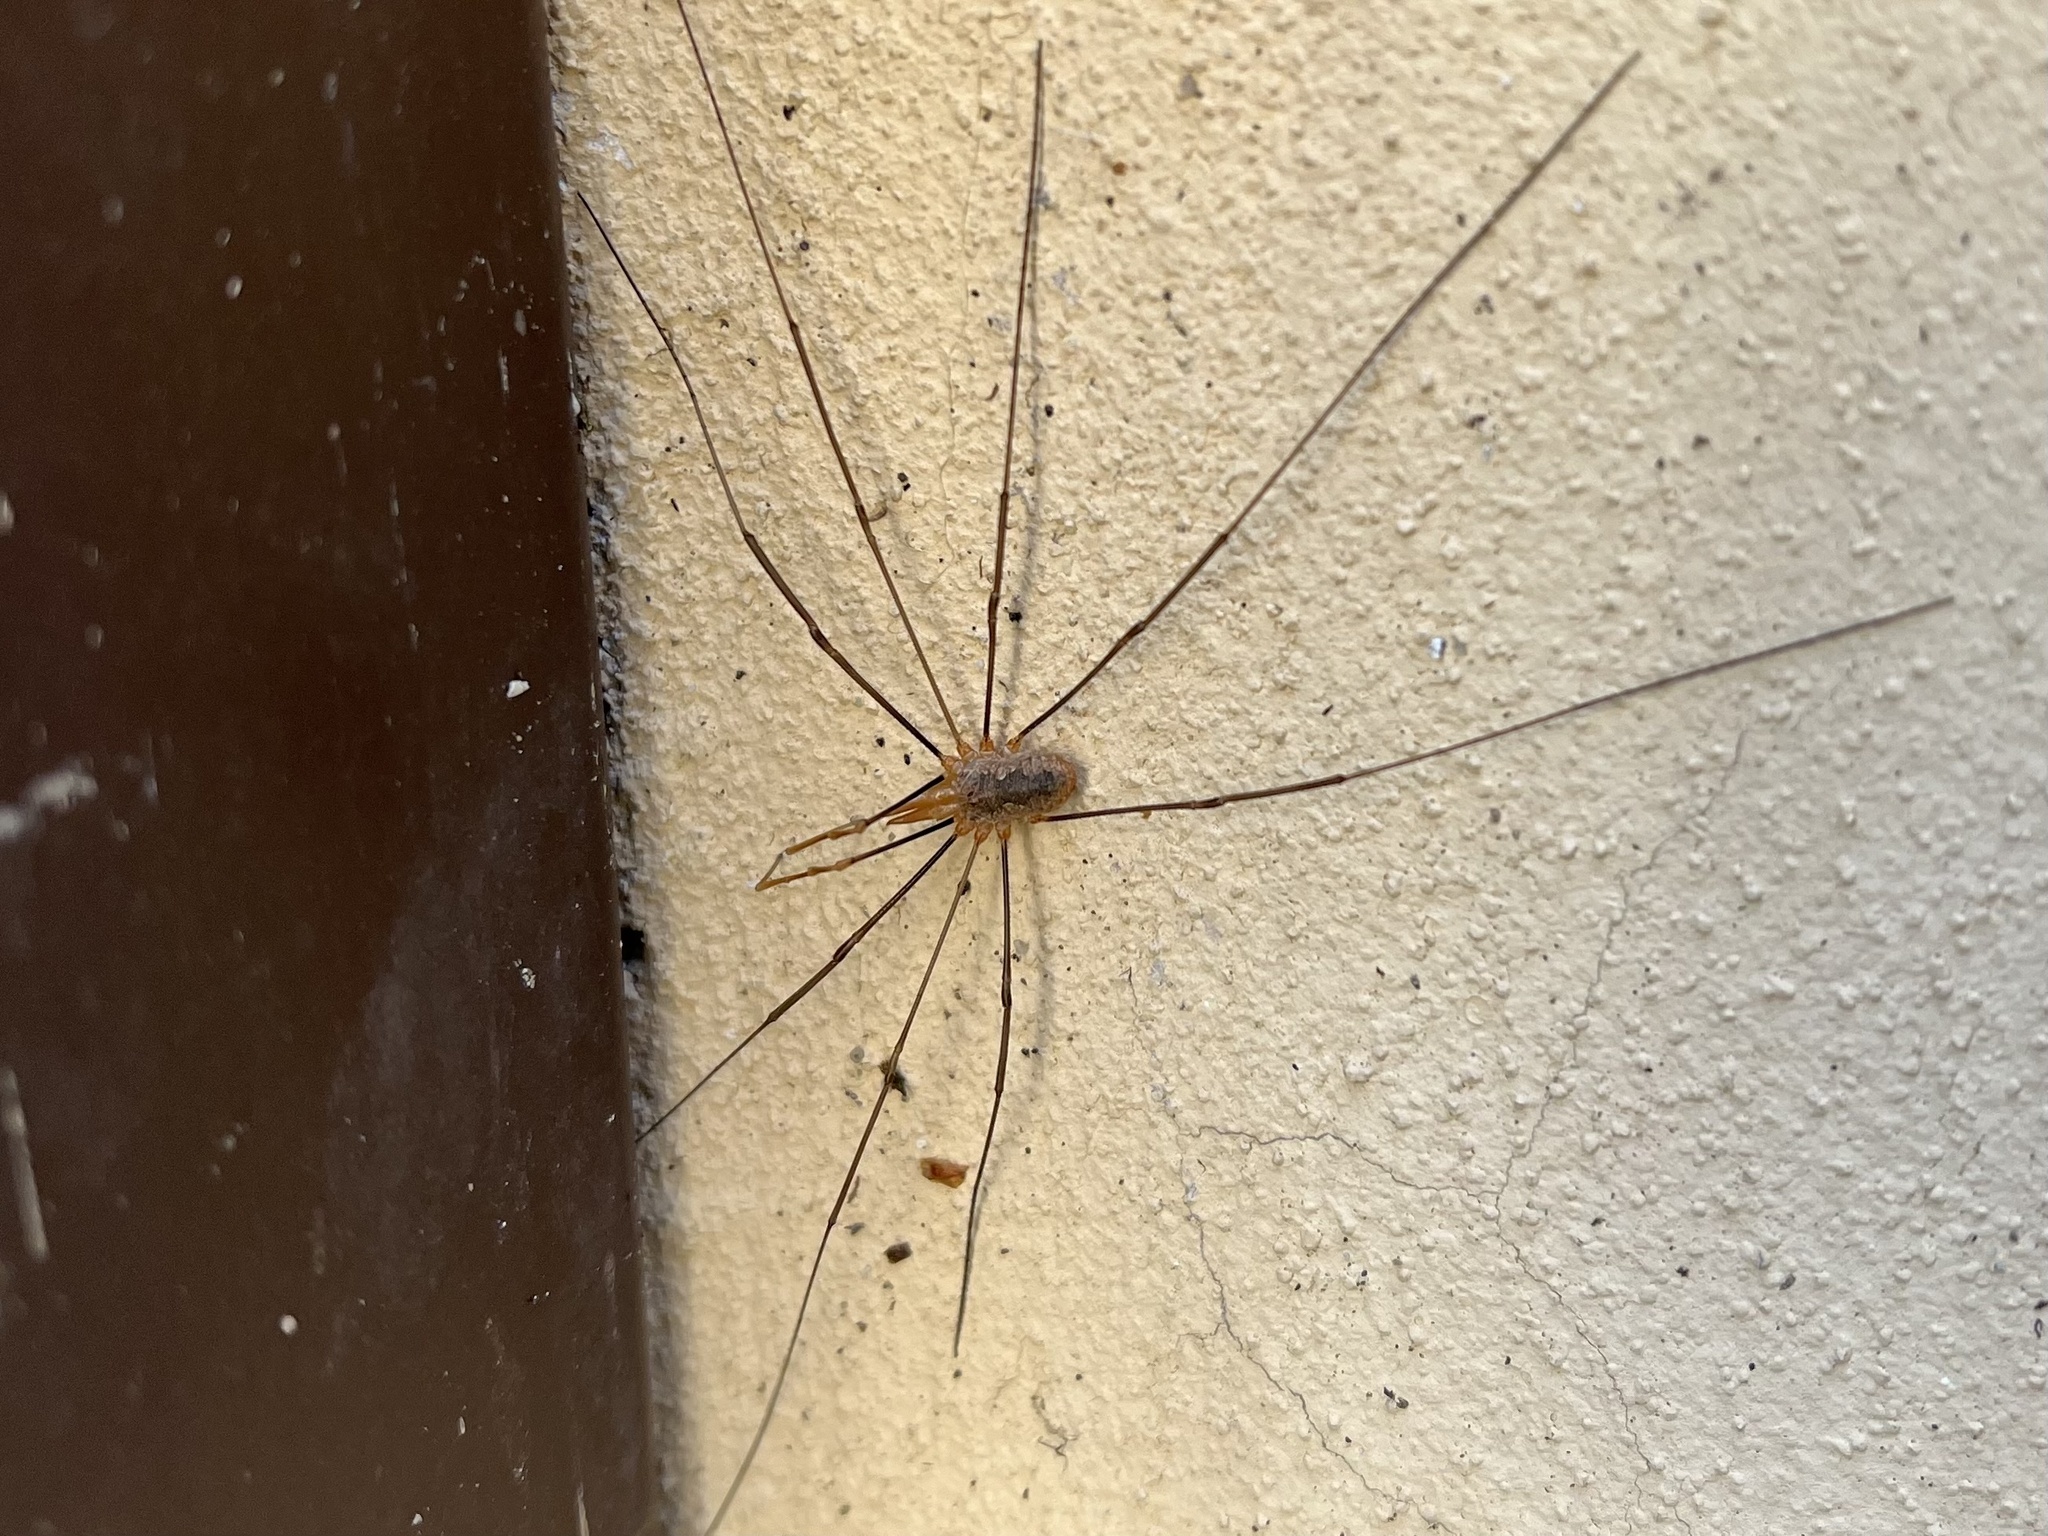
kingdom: Animalia
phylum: Arthropoda
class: Arachnida
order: Opiliones
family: Phalangiidae
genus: Phalangium
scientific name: Phalangium opilio
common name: Daddy longleg
